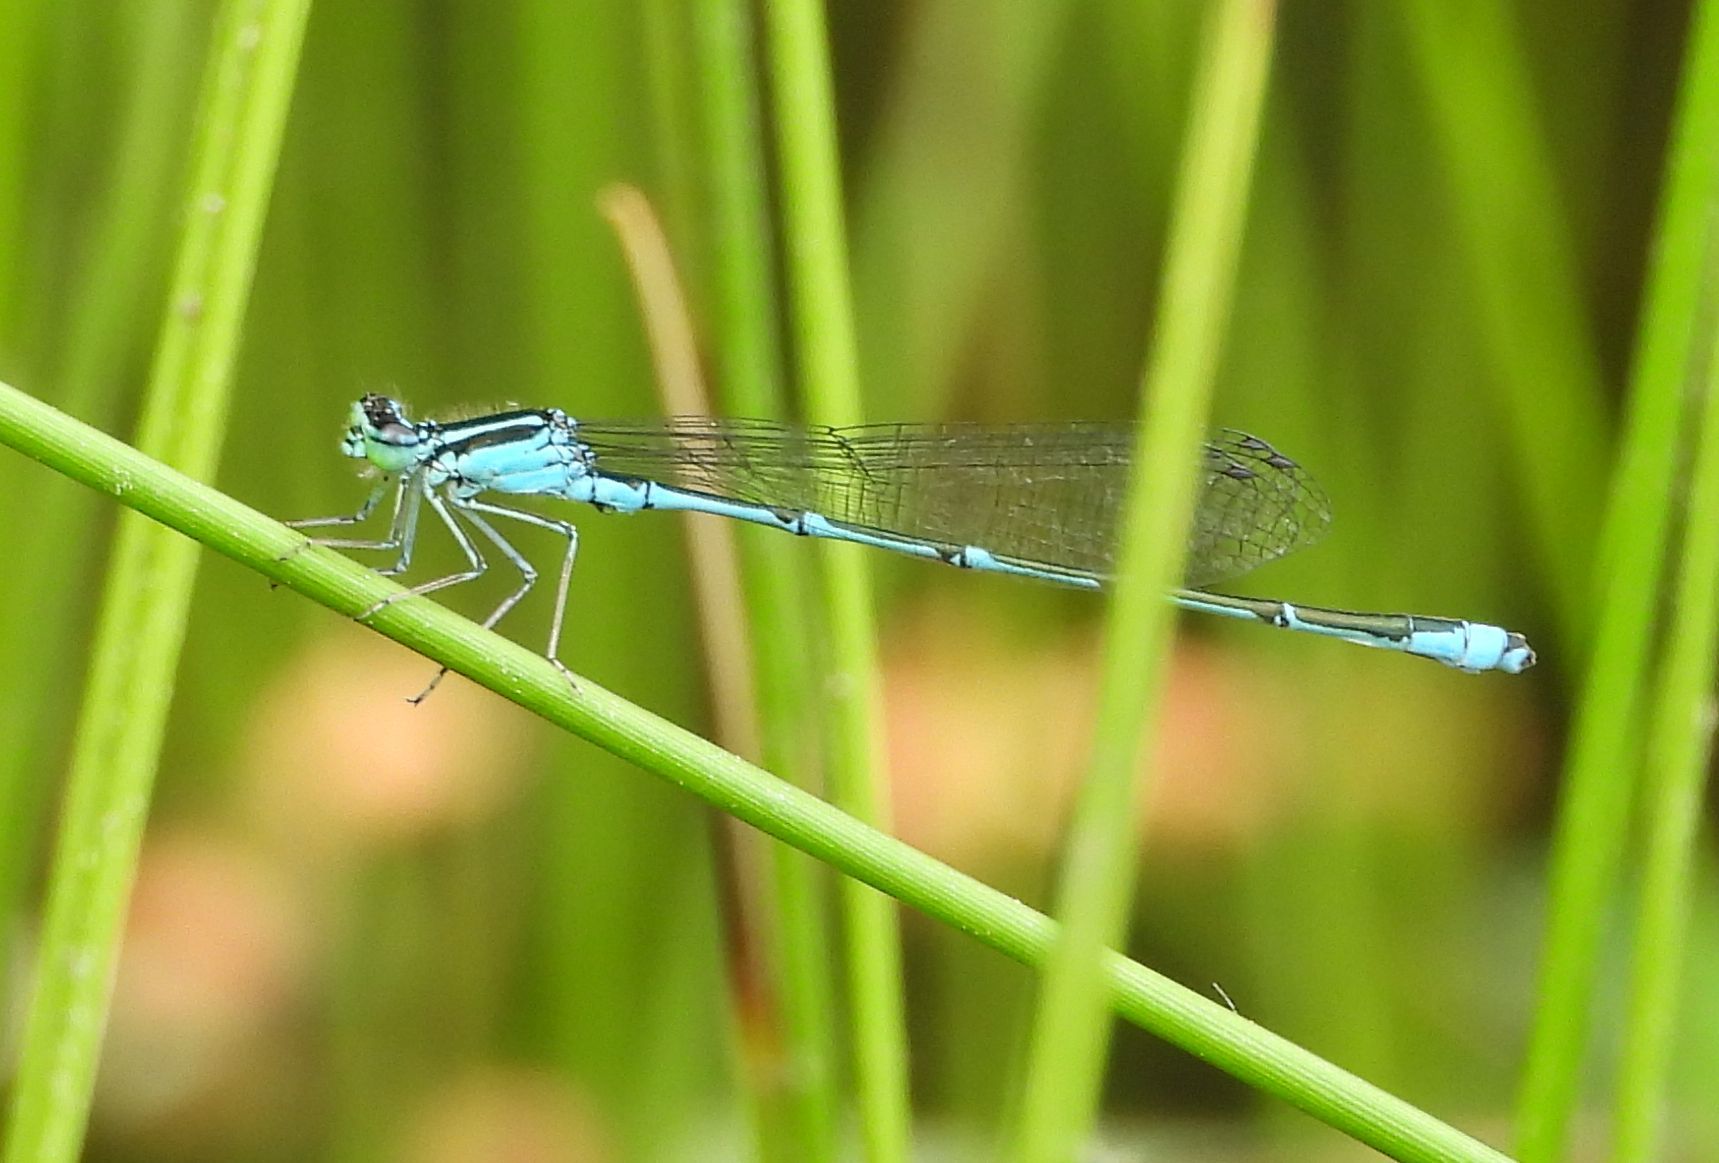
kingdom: Animalia
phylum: Arthropoda
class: Insecta
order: Odonata
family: Coenagrionidae
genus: Enallagma
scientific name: Enallagma exsulans
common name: Stream bluet
